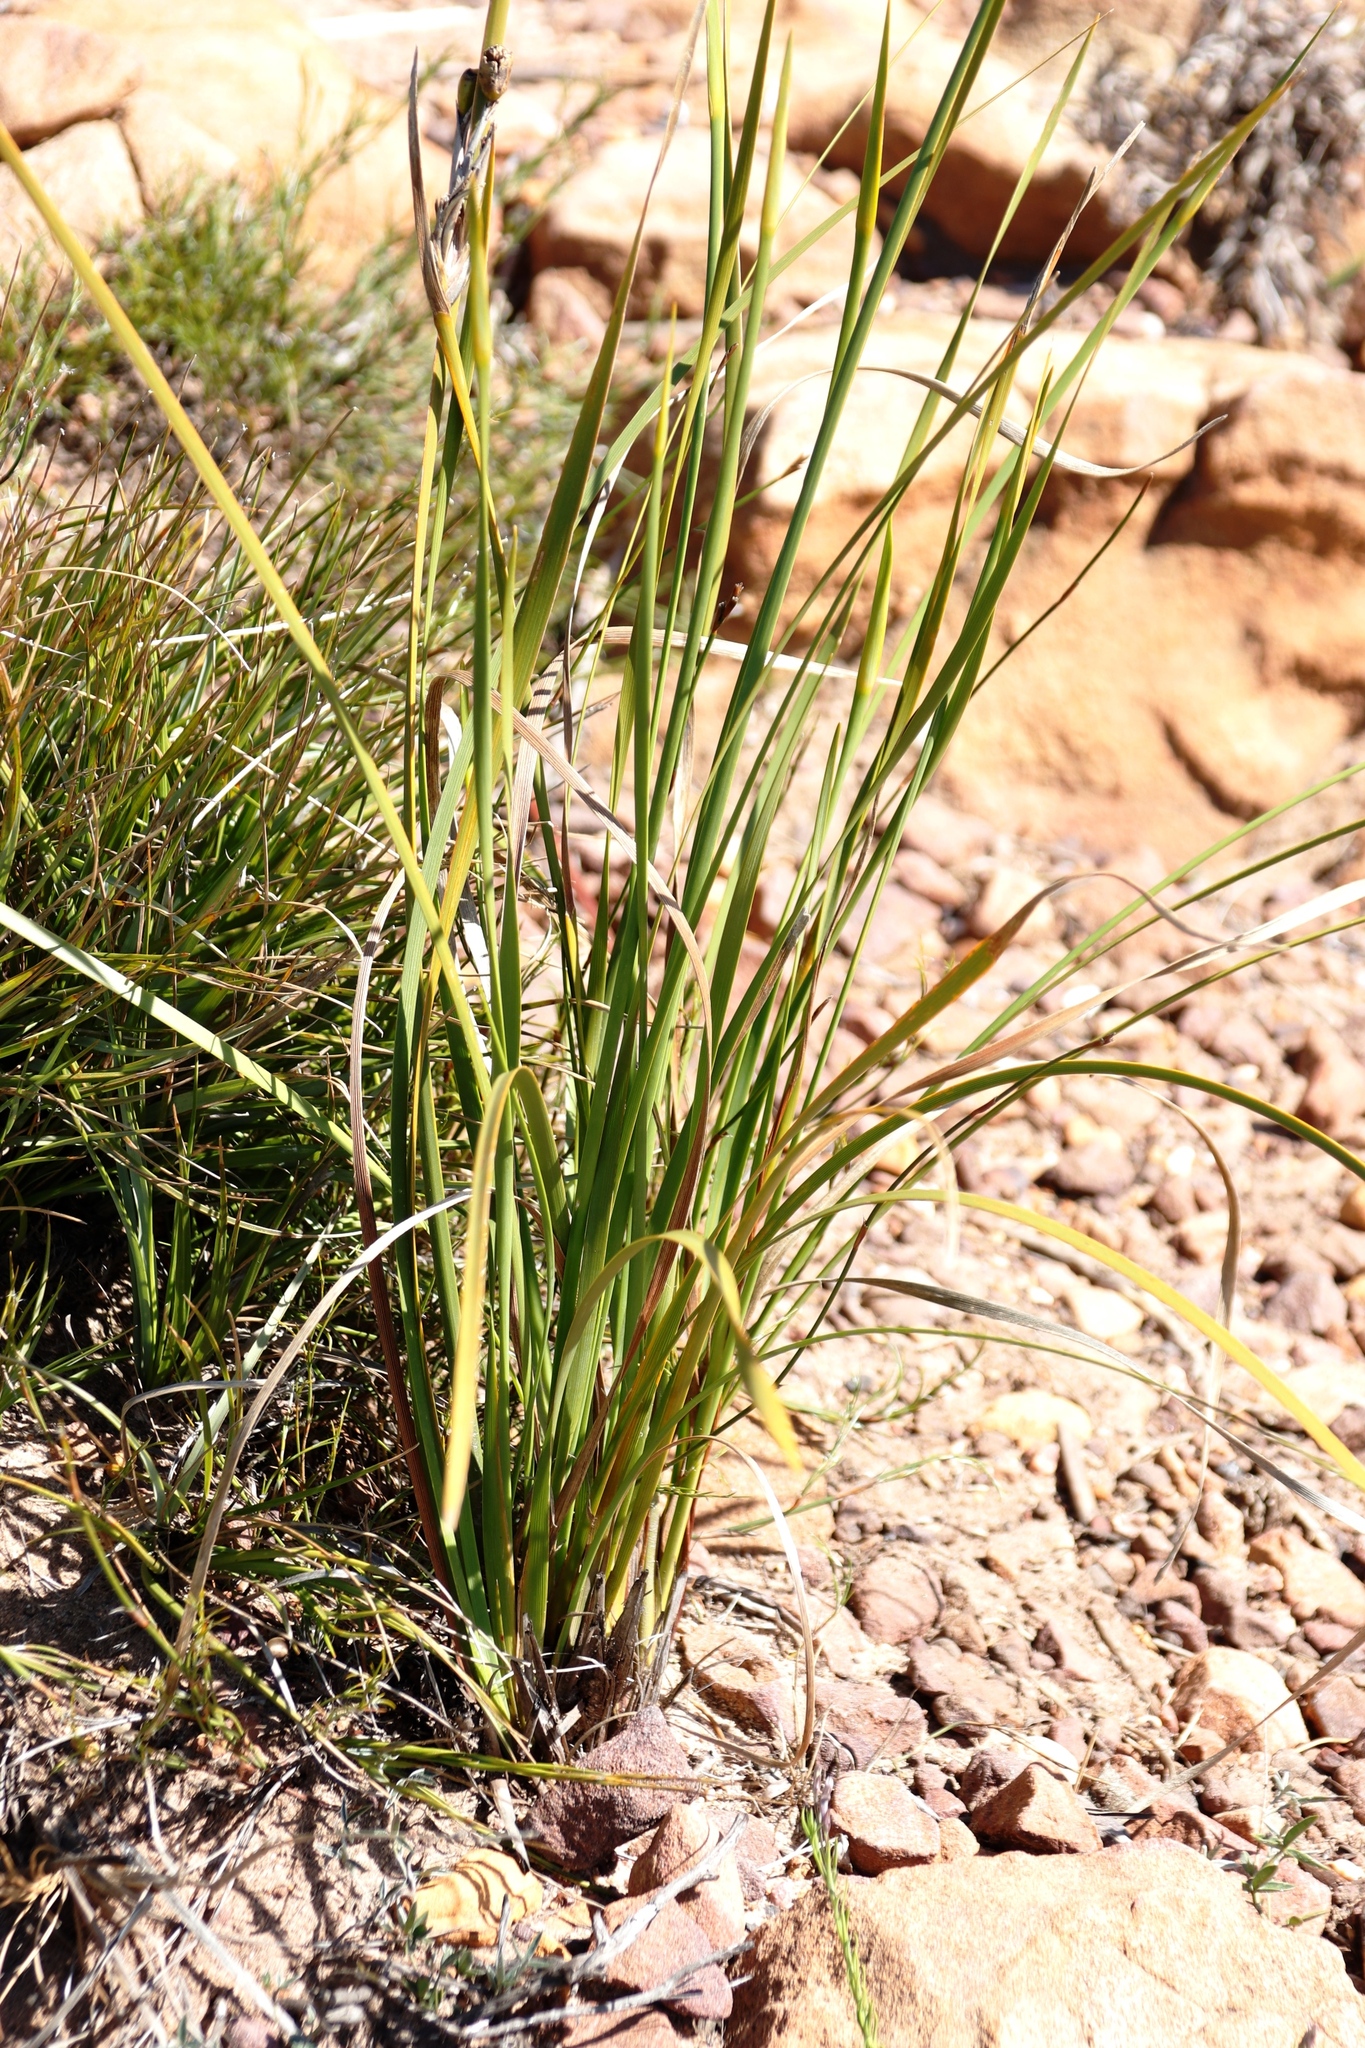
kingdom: Plantae
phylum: Tracheophyta
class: Liliopsida
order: Asparagales
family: Iridaceae
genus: Bobartia
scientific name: Bobartia gladiata
